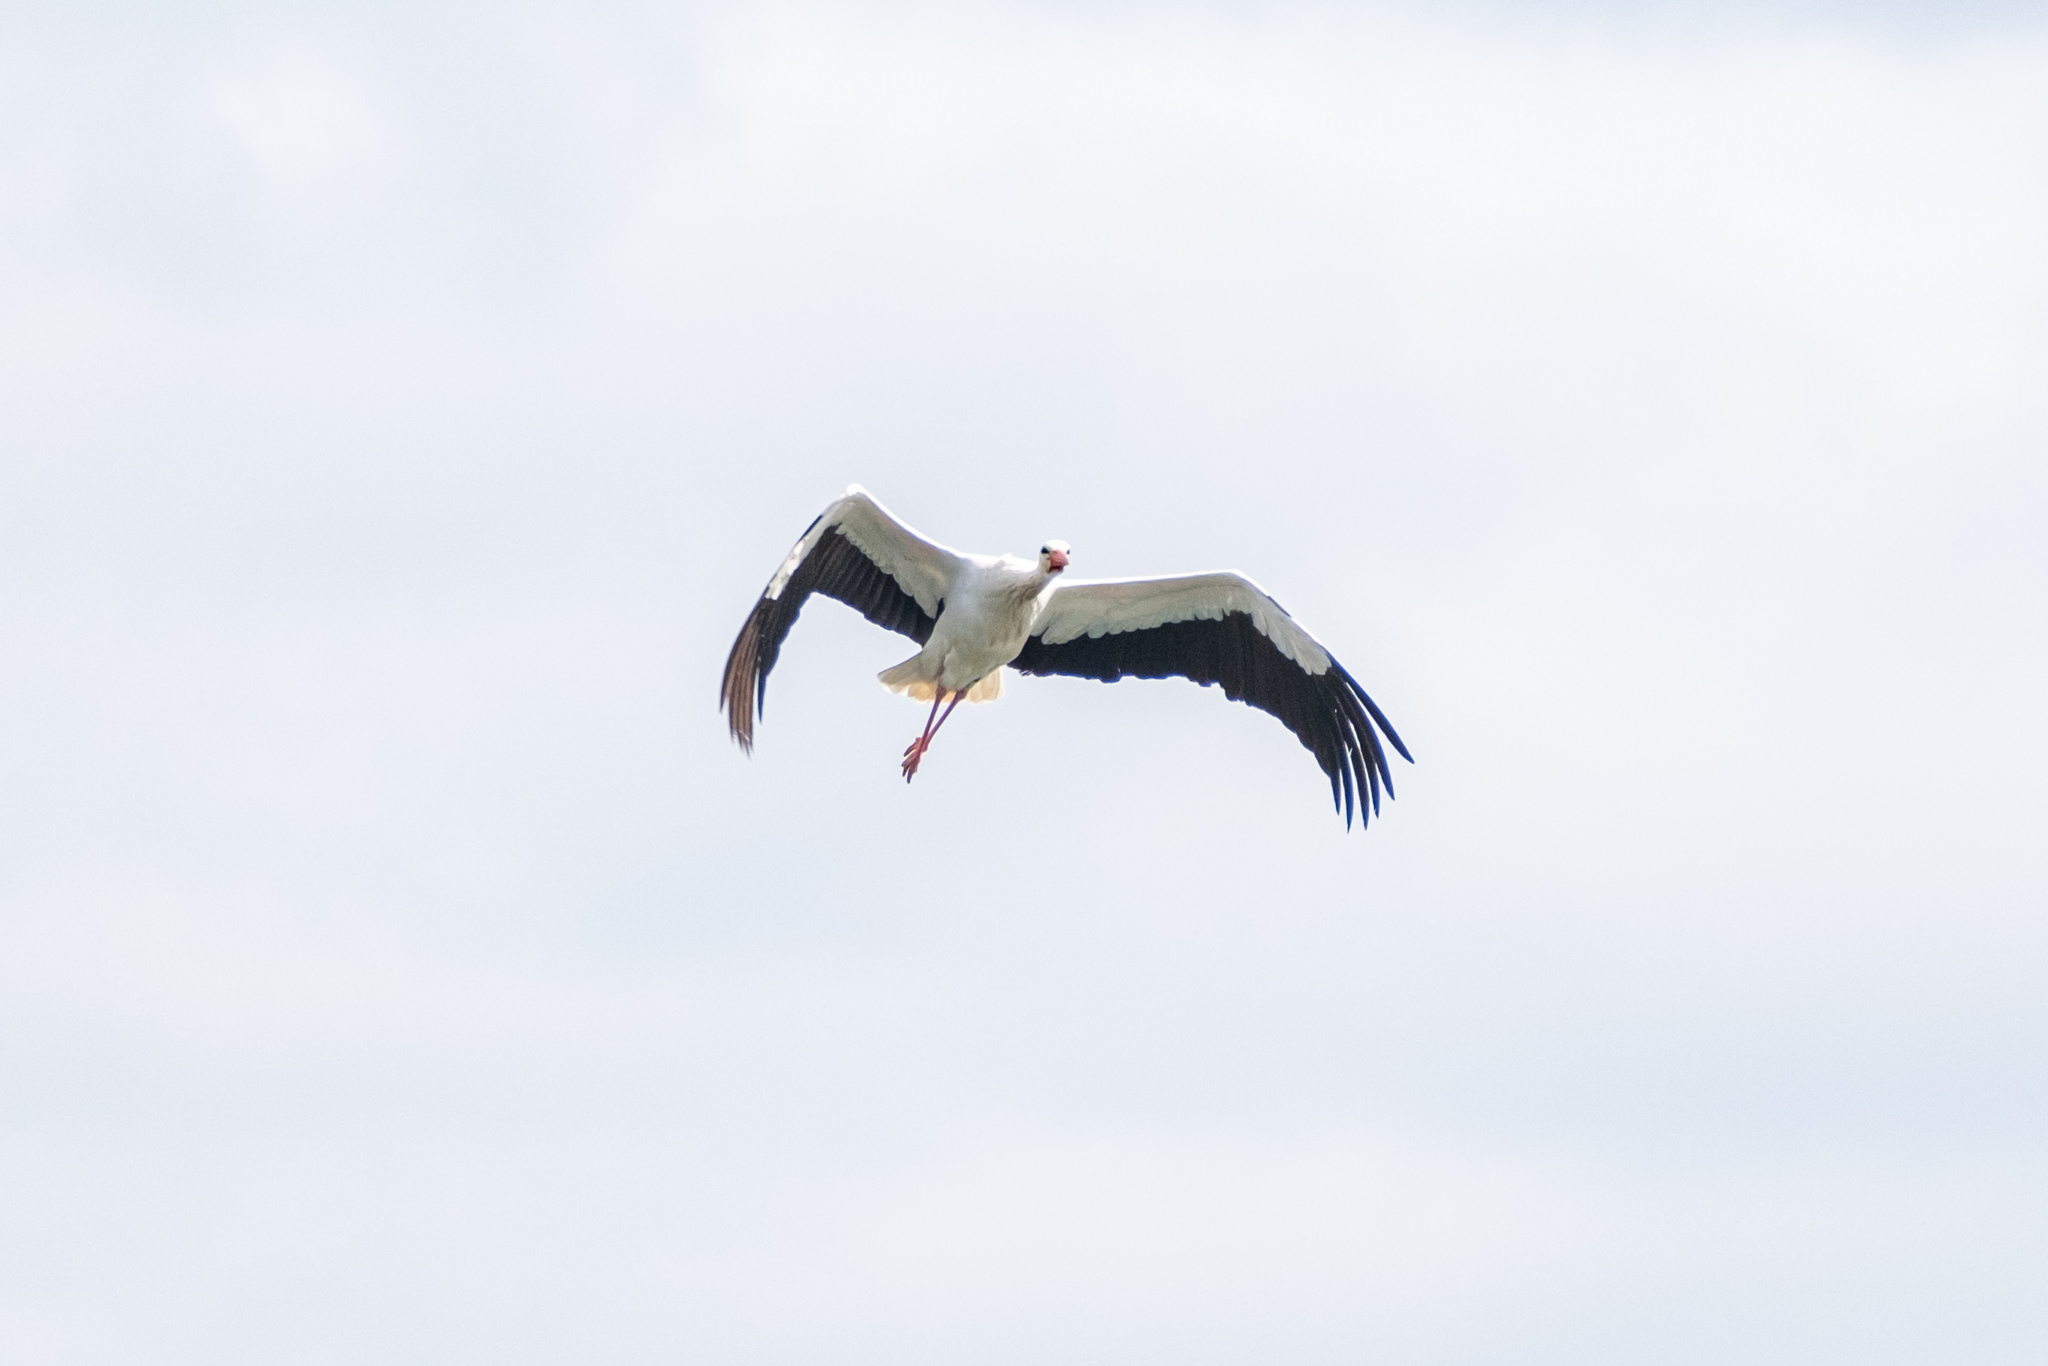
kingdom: Animalia
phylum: Chordata
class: Aves
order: Ciconiiformes
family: Ciconiidae
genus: Ciconia
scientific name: Ciconia ciconia
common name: White stork
